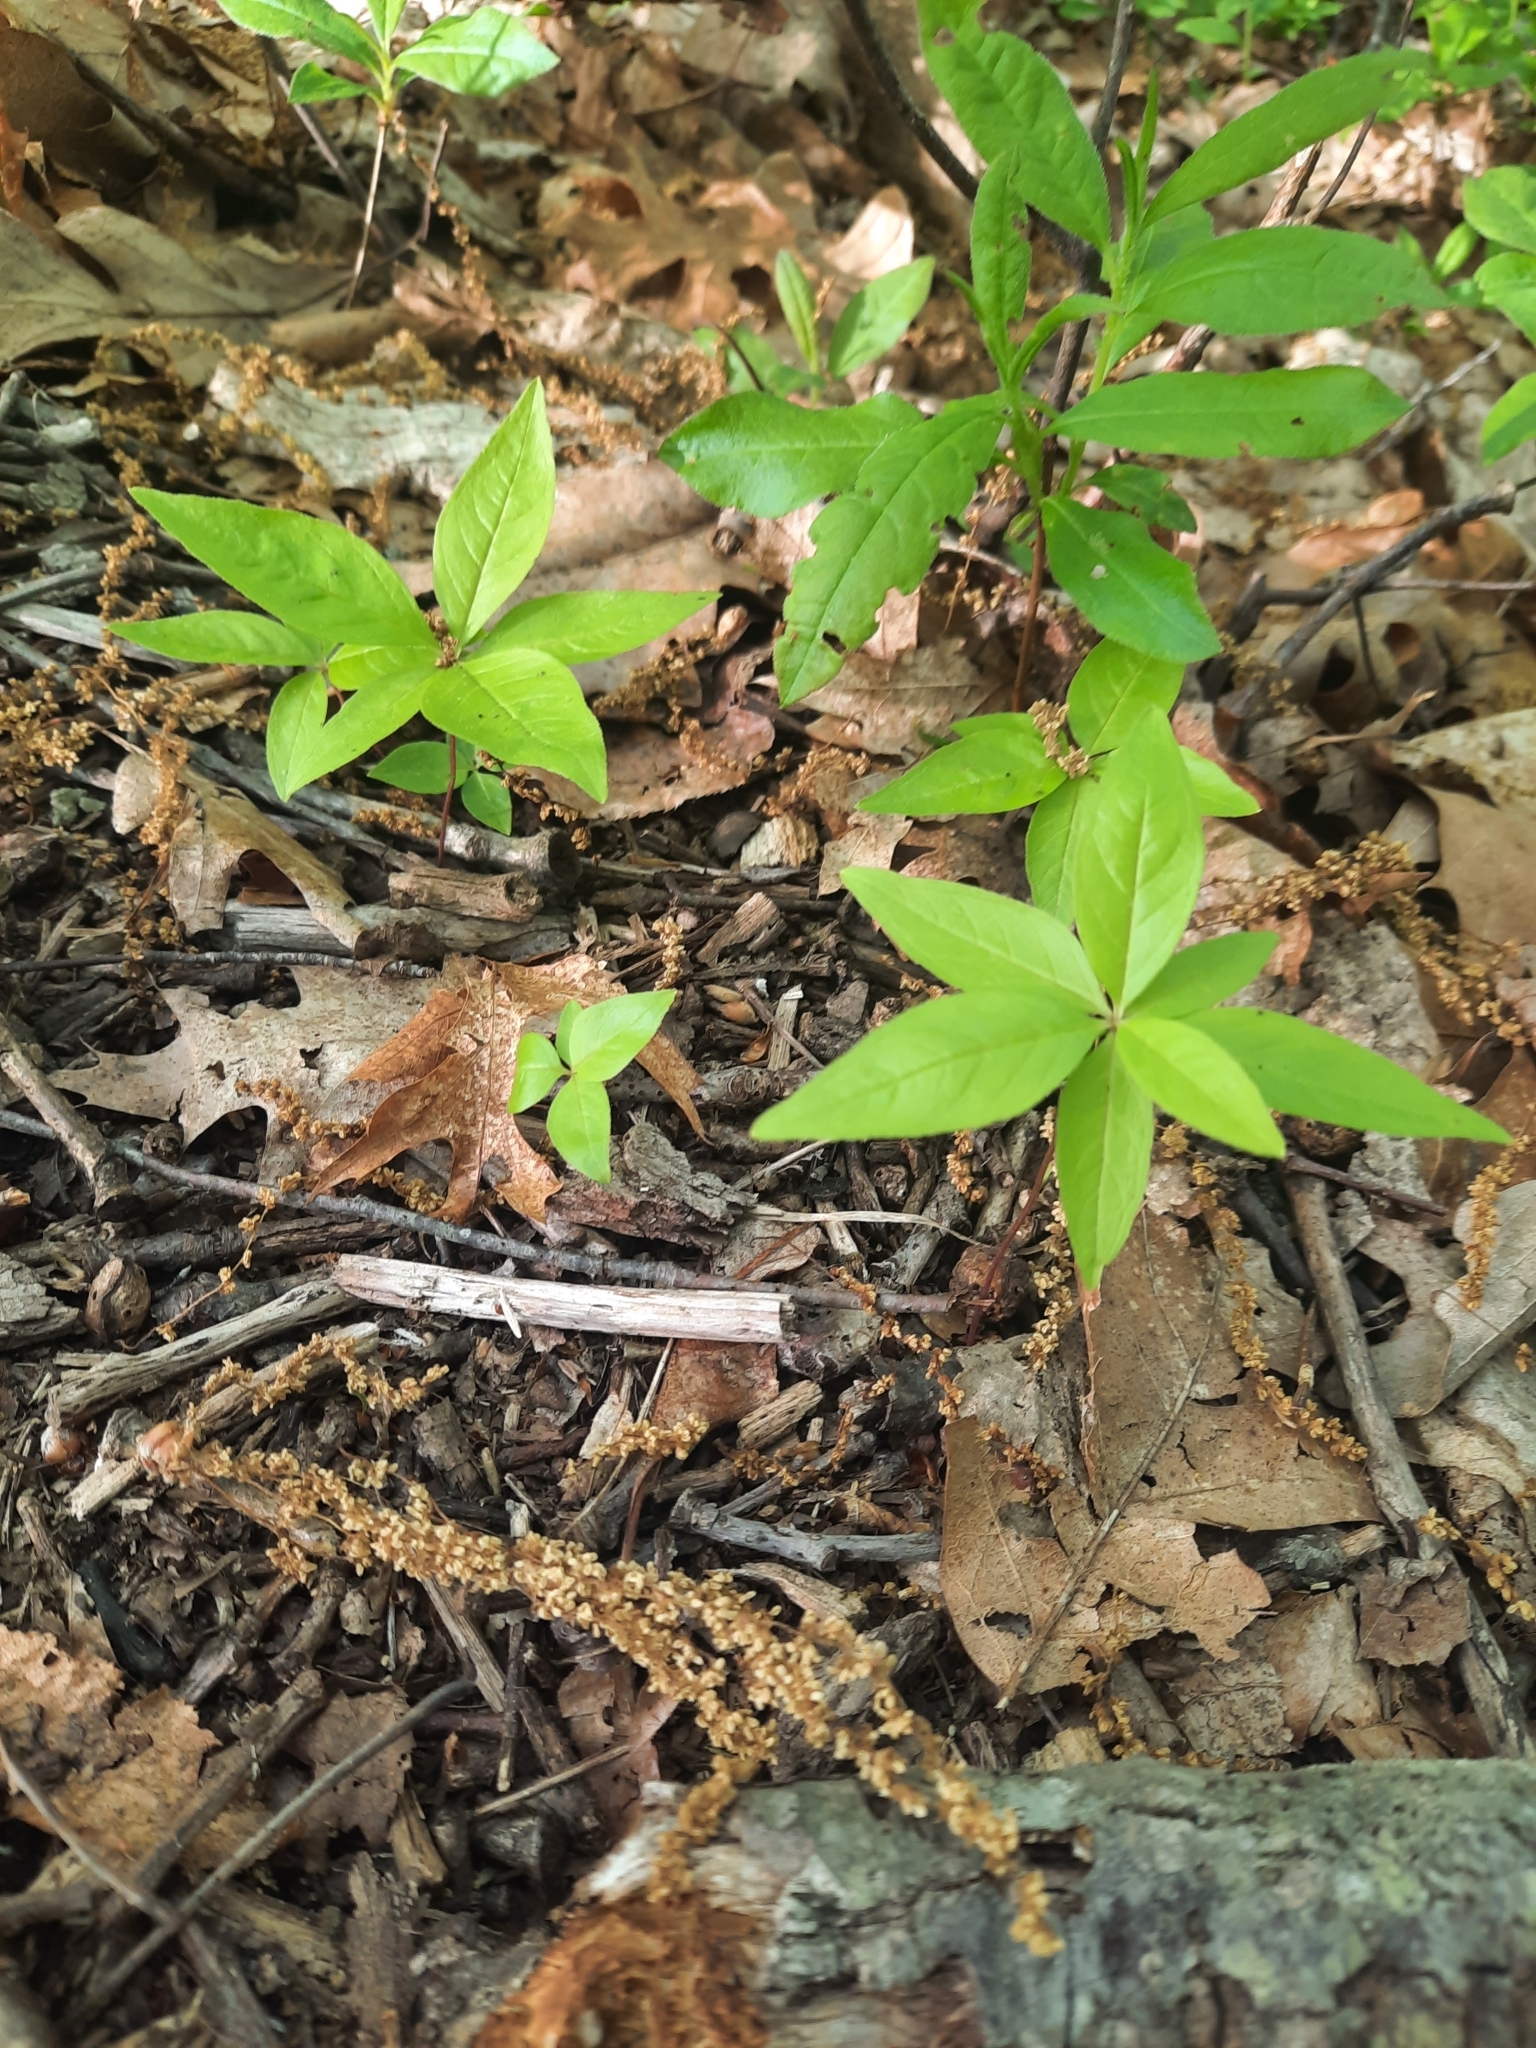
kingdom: Plantae
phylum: Tracheophyta
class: Magnoliopsida
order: Ericales
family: Primulaceae
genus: Lysimachia
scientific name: Lysimachia borealis
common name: American starflower
